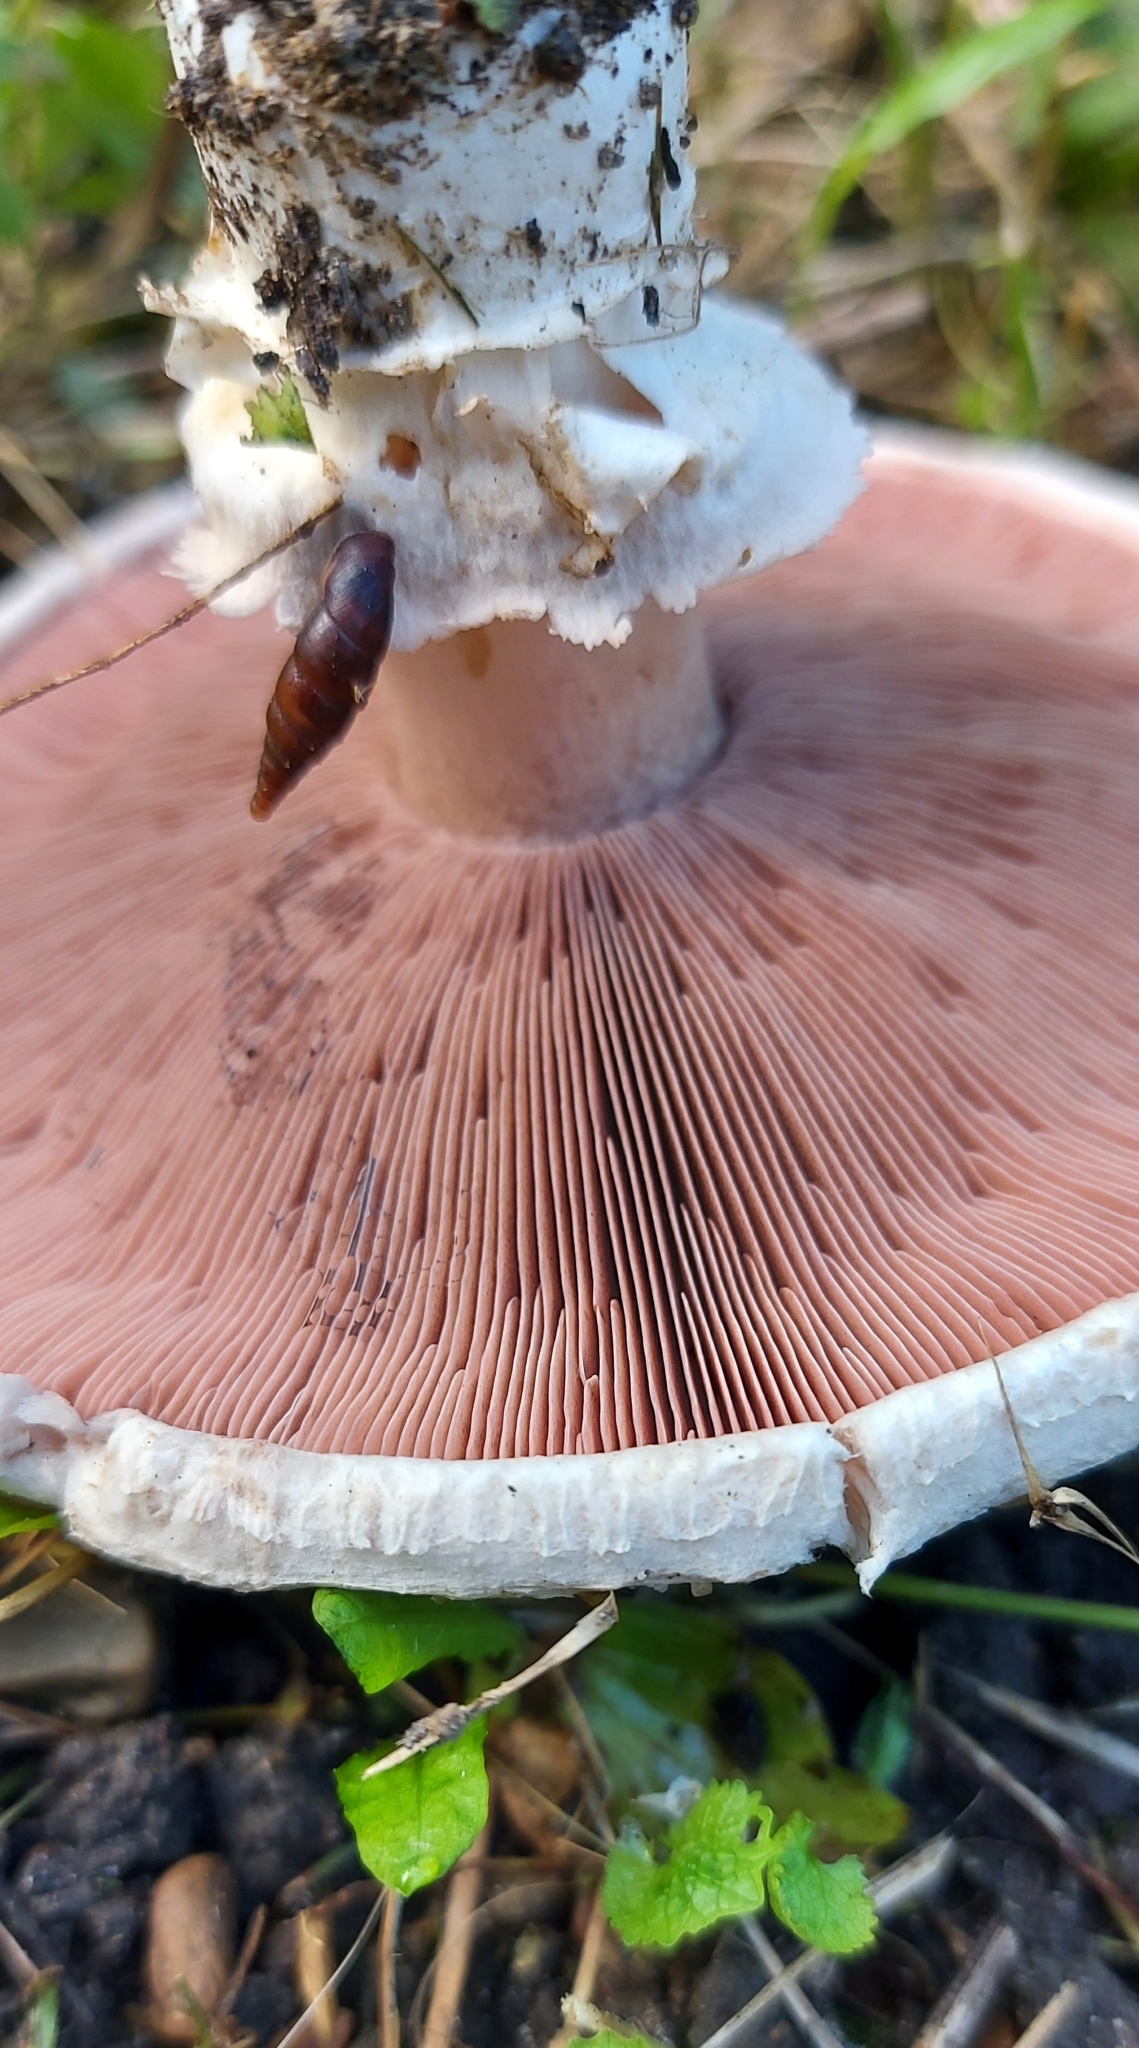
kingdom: Fungi
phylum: Basidiomycota
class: Agaricomycetes
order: Agaricales
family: Agaricaceae
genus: Agaricus
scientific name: Agaricus campestris
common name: Field mushroom
